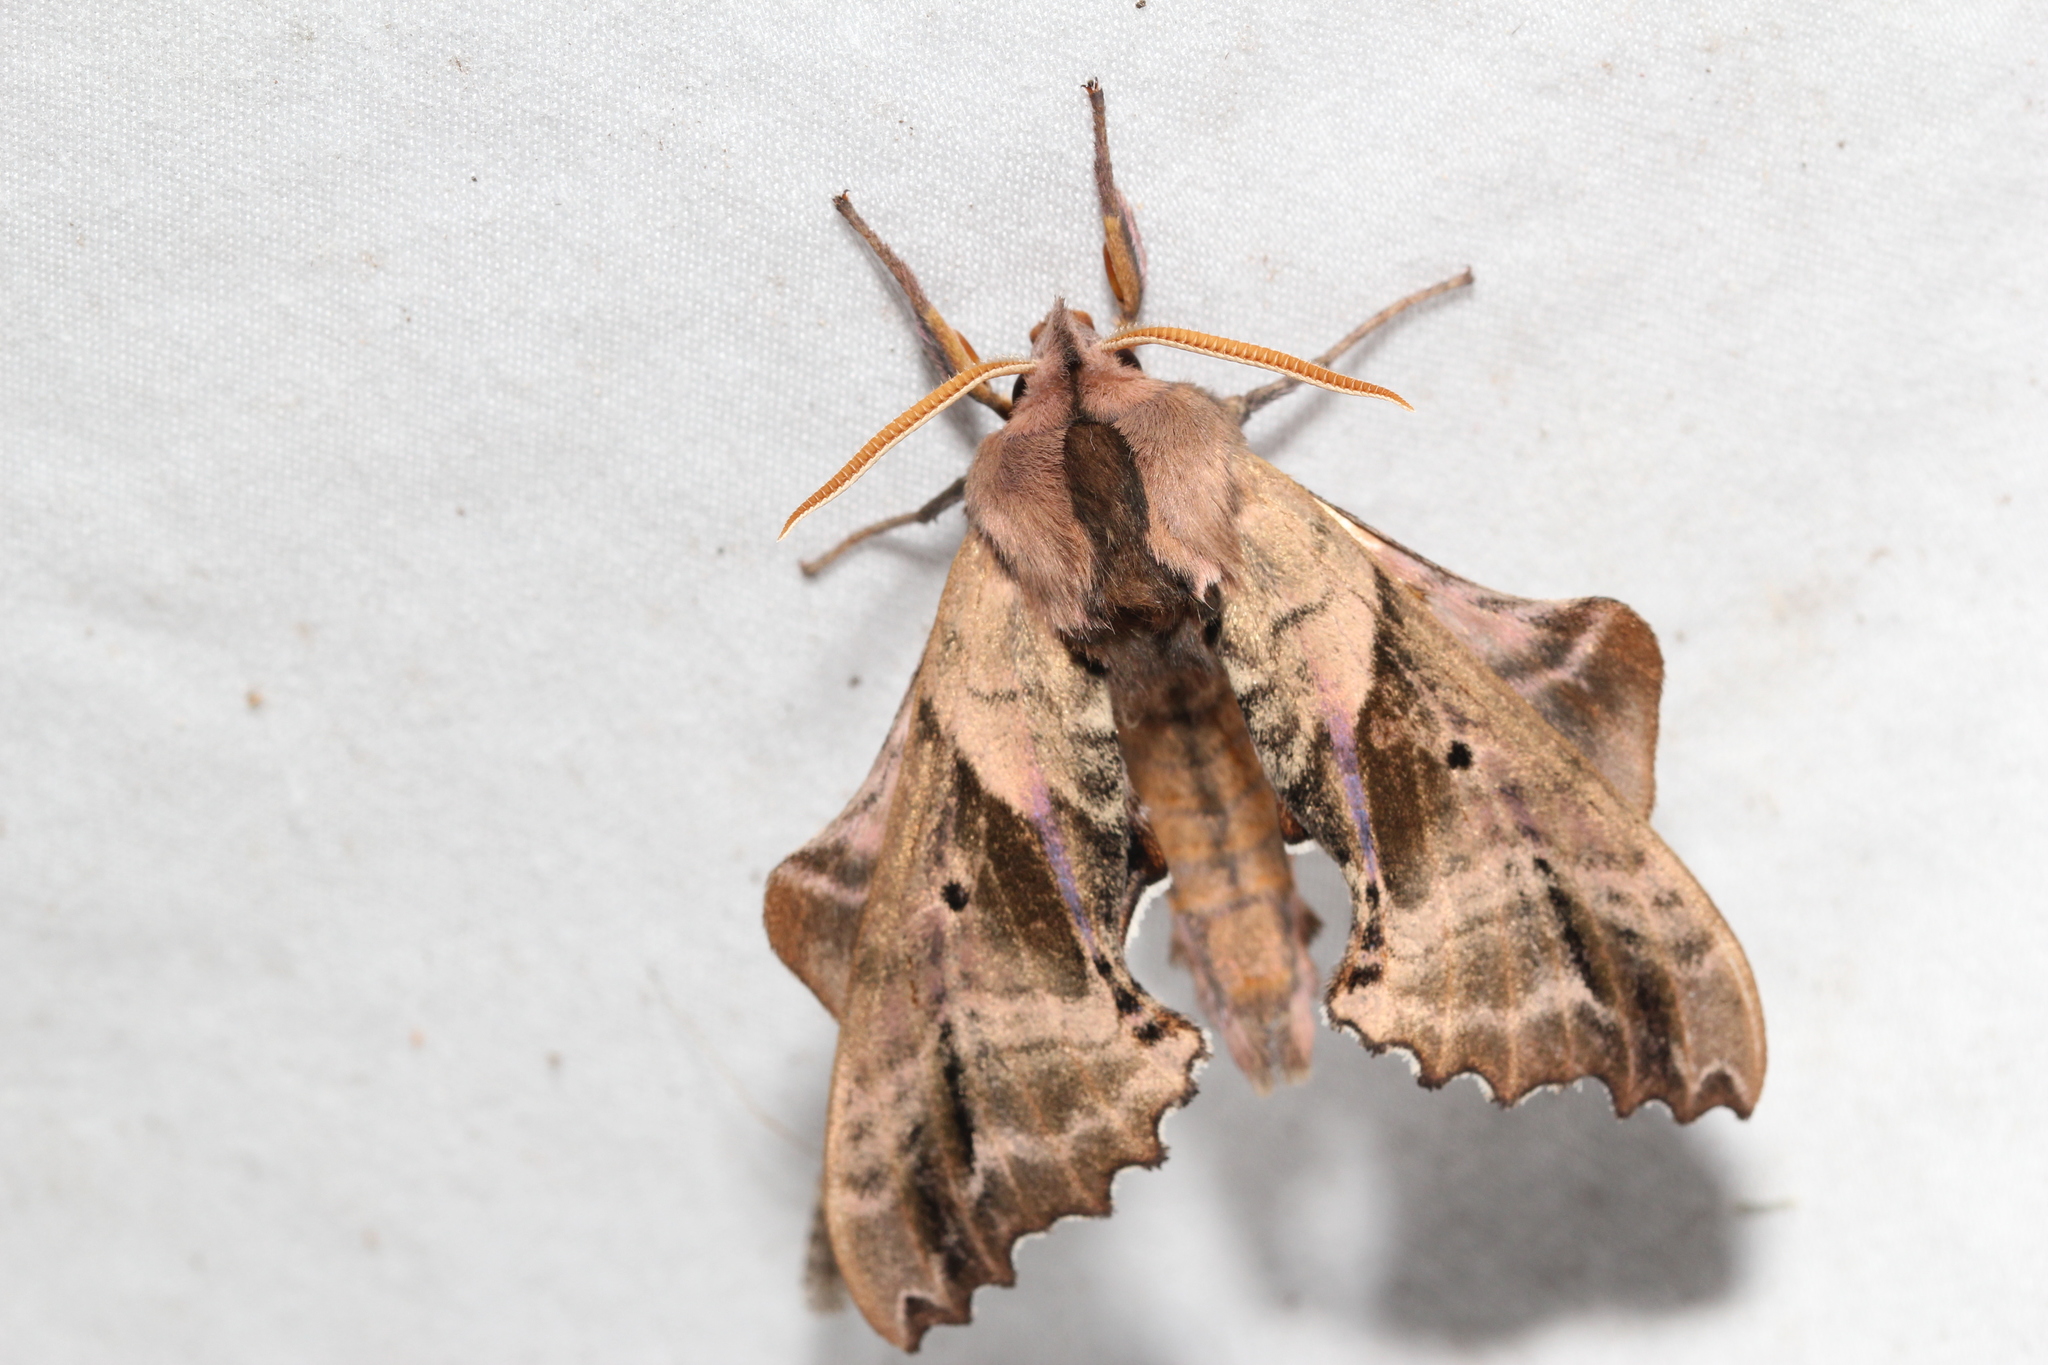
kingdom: Animalia
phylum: Arthropoda
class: Insecta
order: Lepidoptera
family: Sphingidae
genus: Paonias
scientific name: Paonias excaecata
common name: Blind-eyed sphinx
